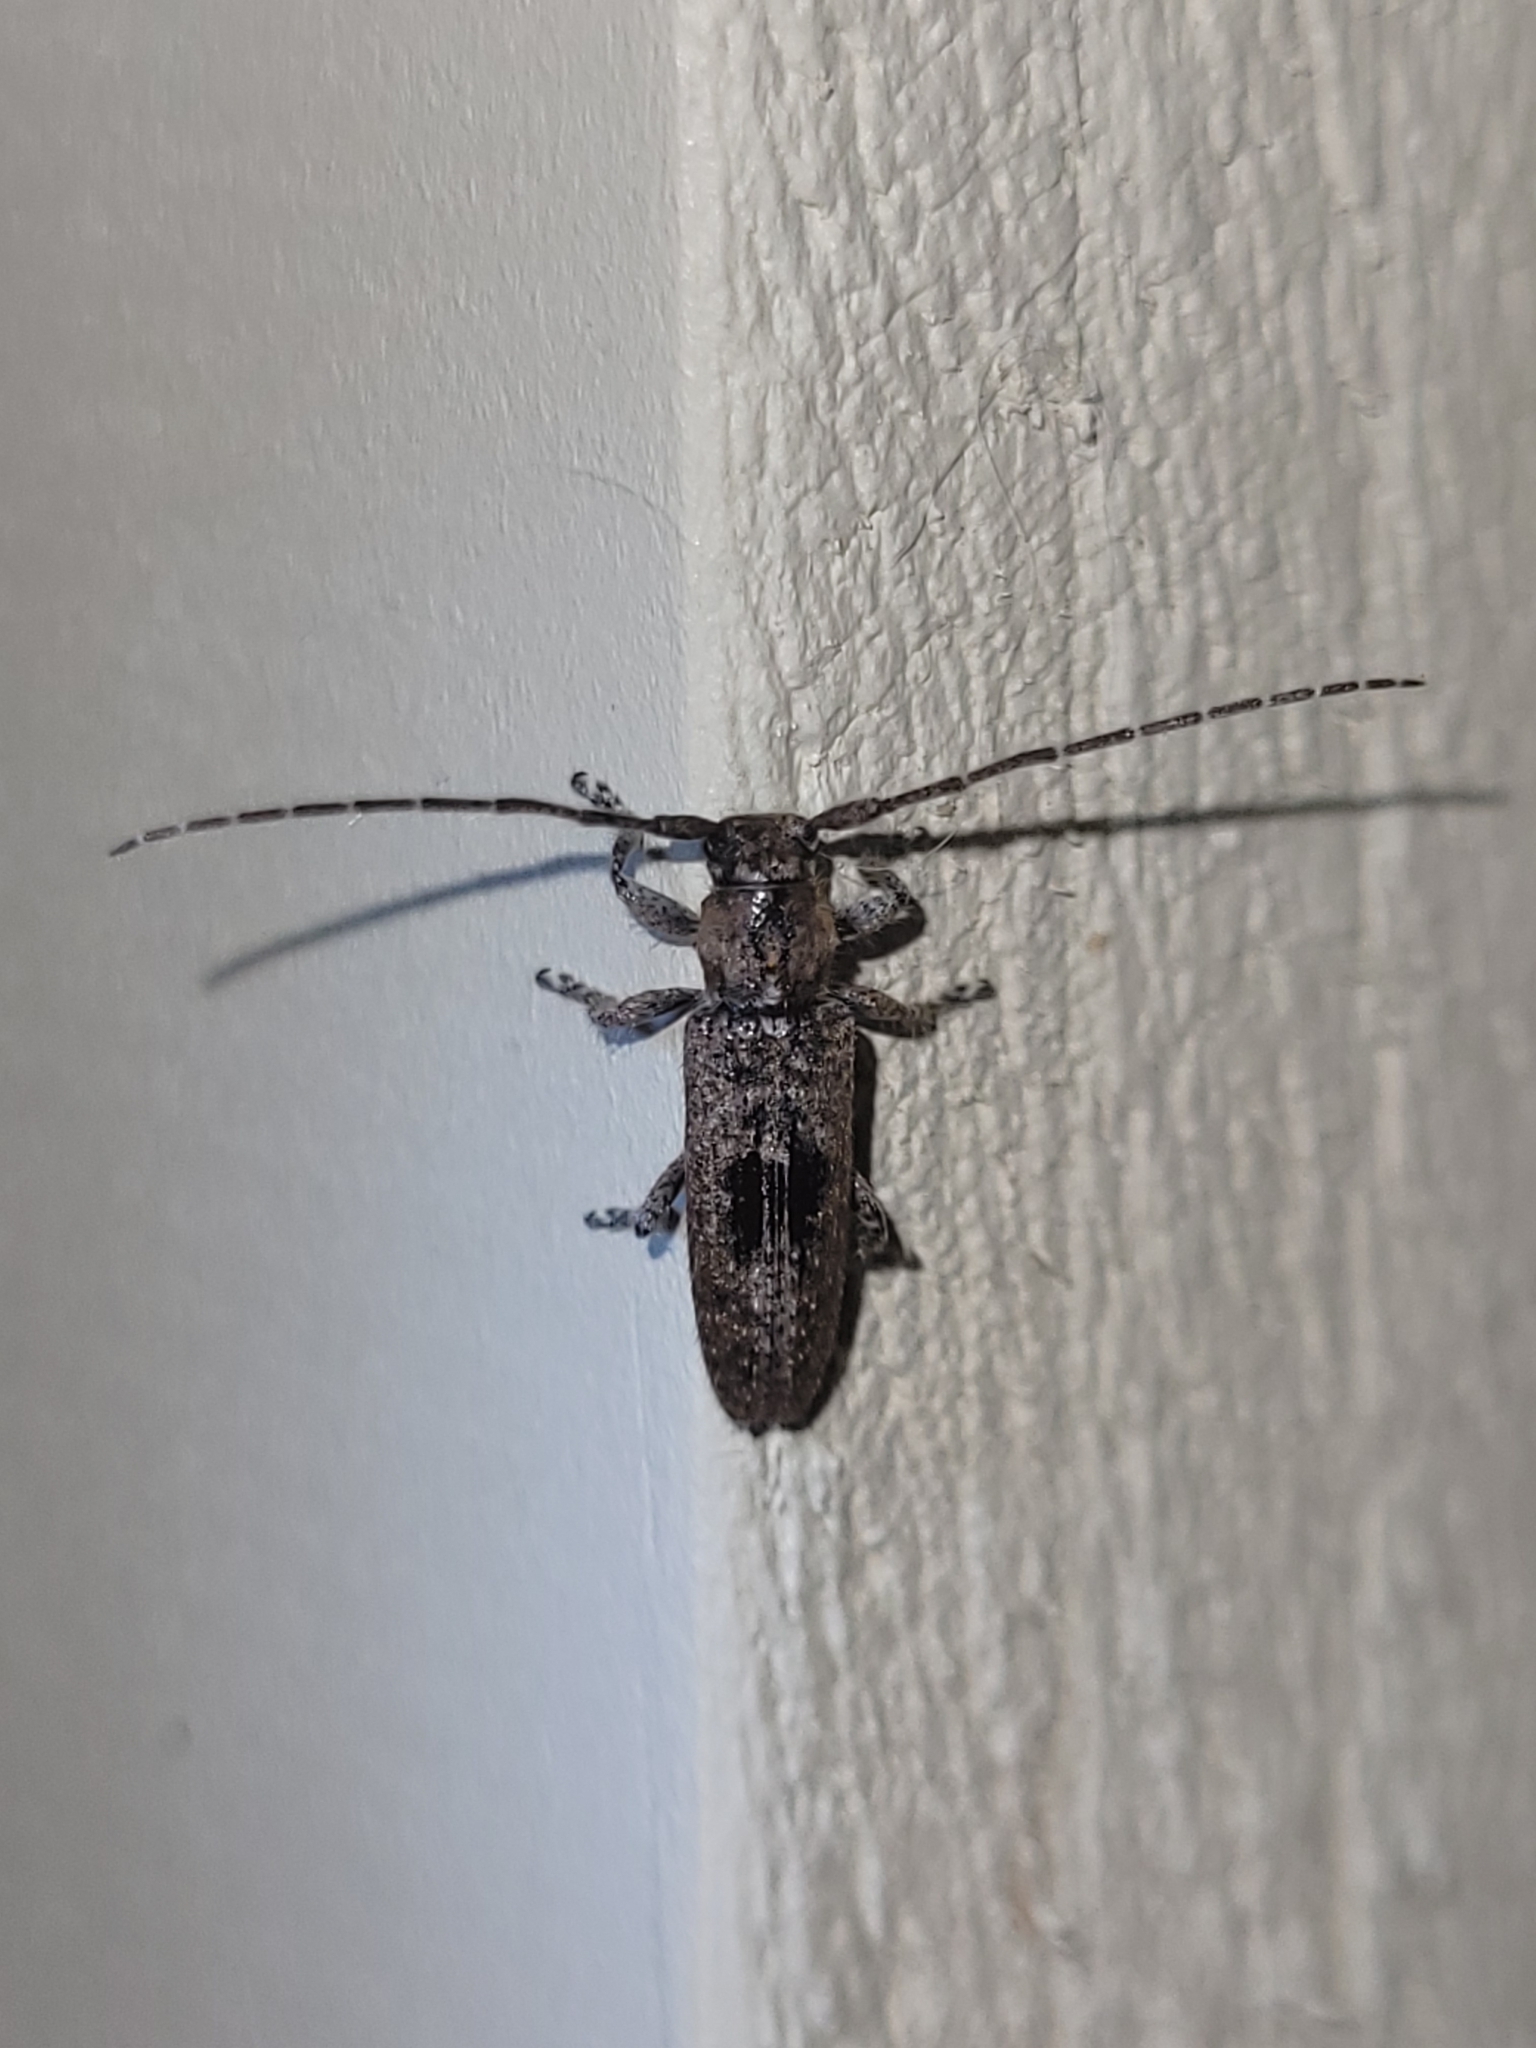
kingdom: Animalia
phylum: Arthropoda
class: Insecta
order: Coleoptera
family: Cerambycidae
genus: Ataxia
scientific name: Ataxia crypta
